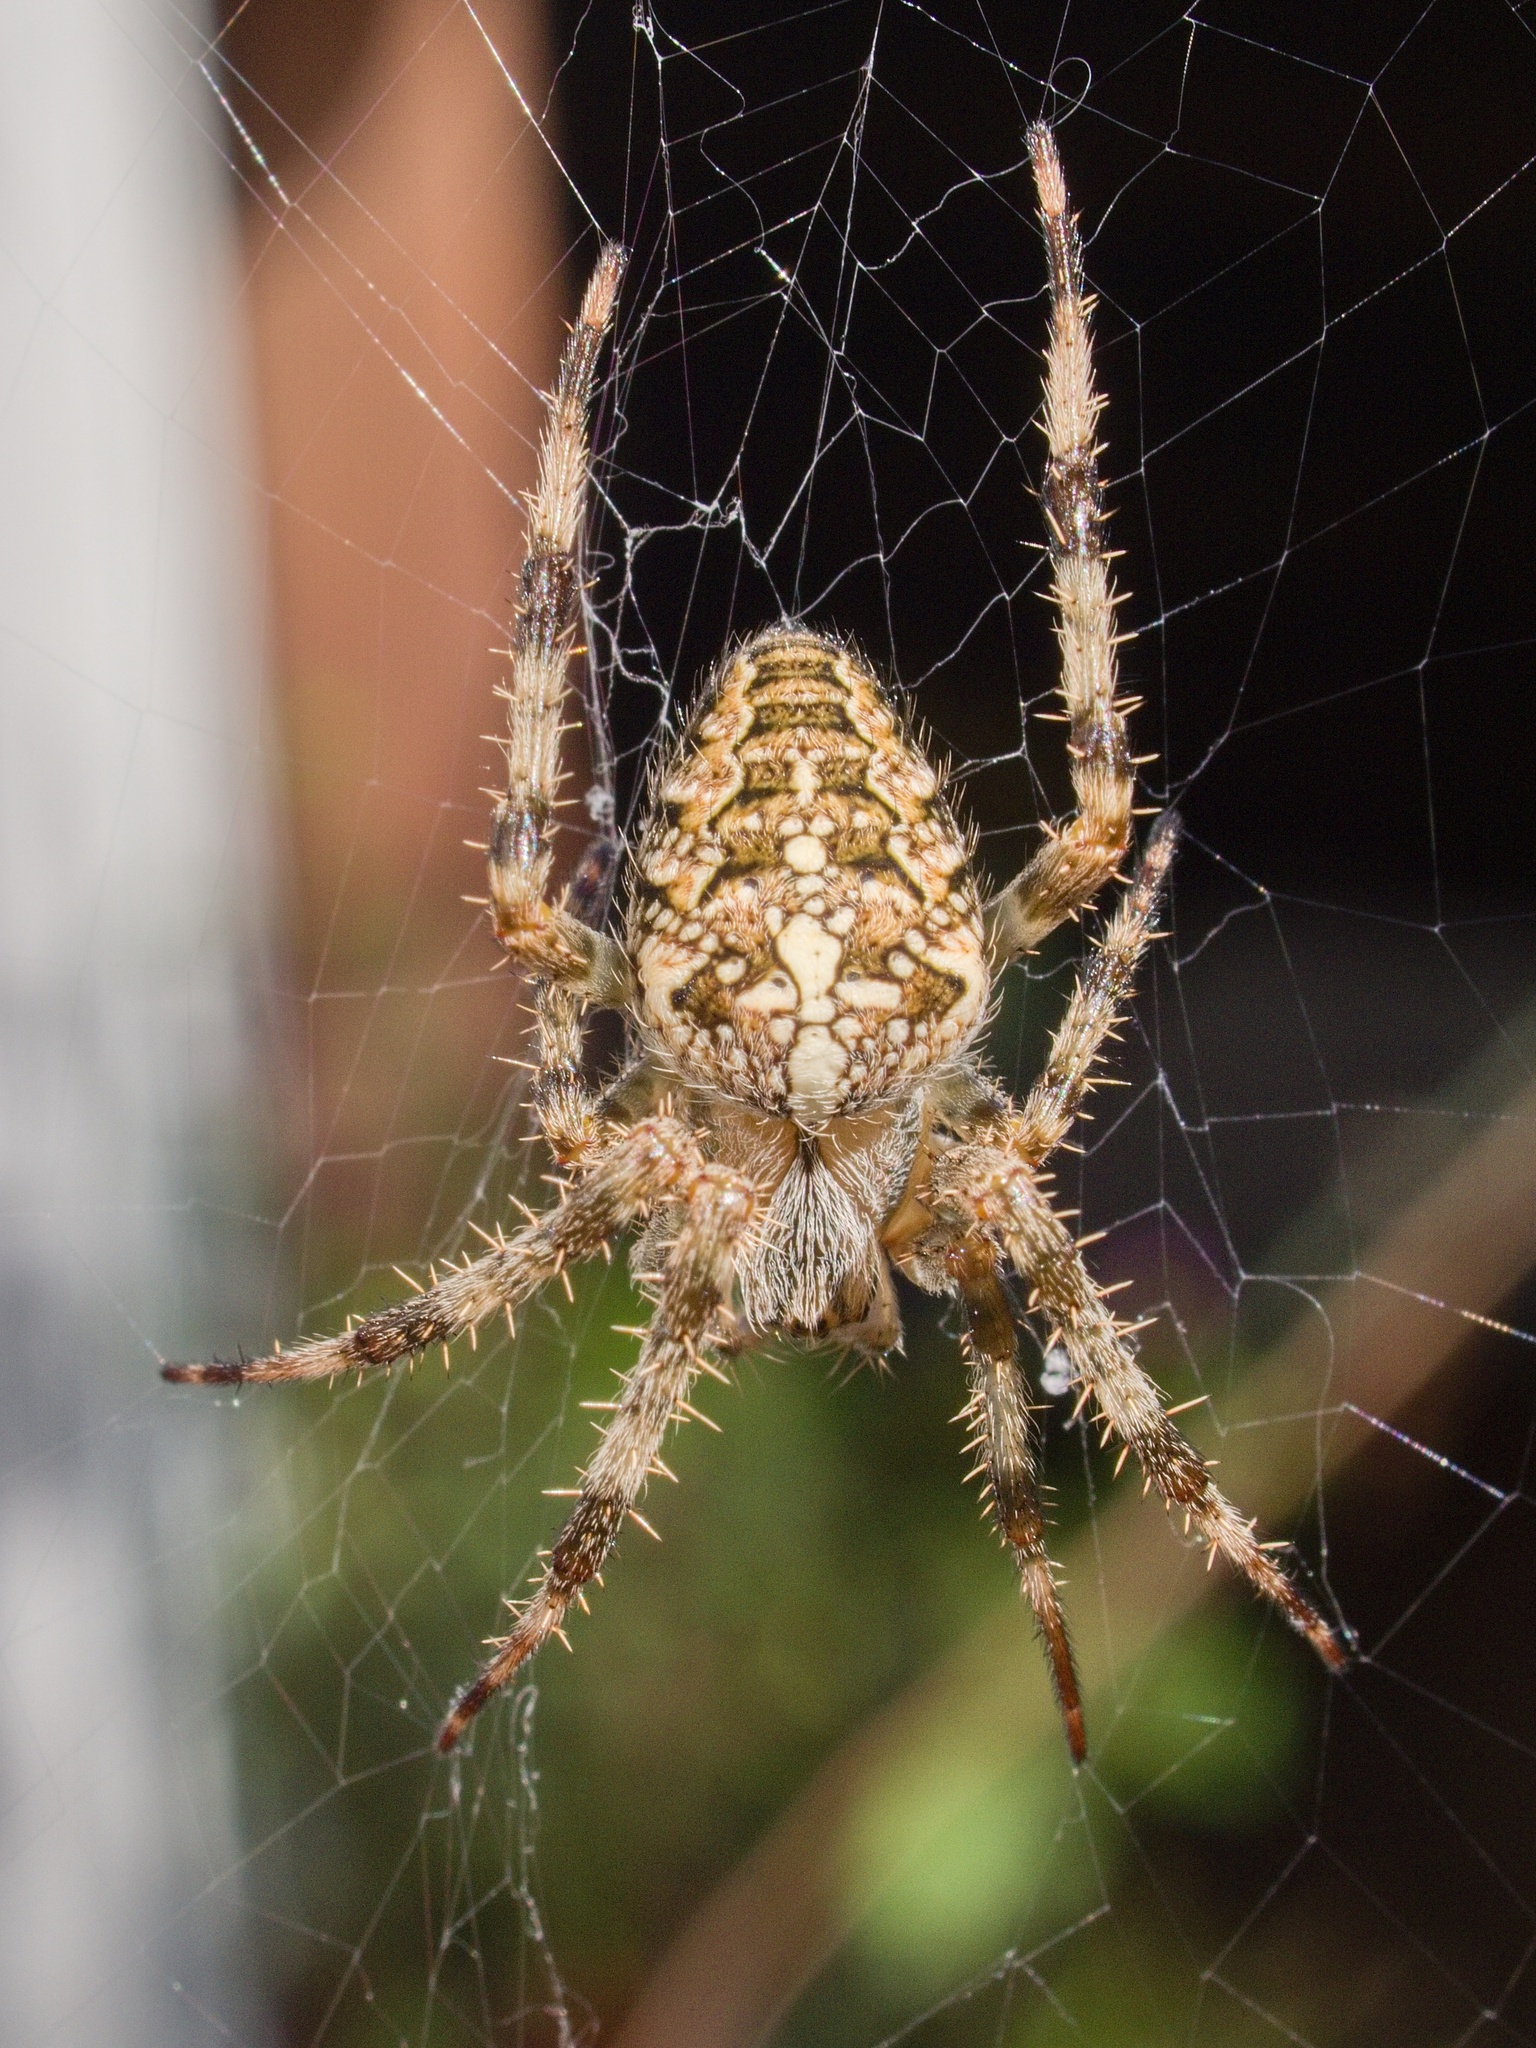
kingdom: Animalia
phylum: Arthropoda
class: Arachnida
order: Araneae
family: Araneidae
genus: Araneus
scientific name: Araneus diadematus
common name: Cross orbweaver
